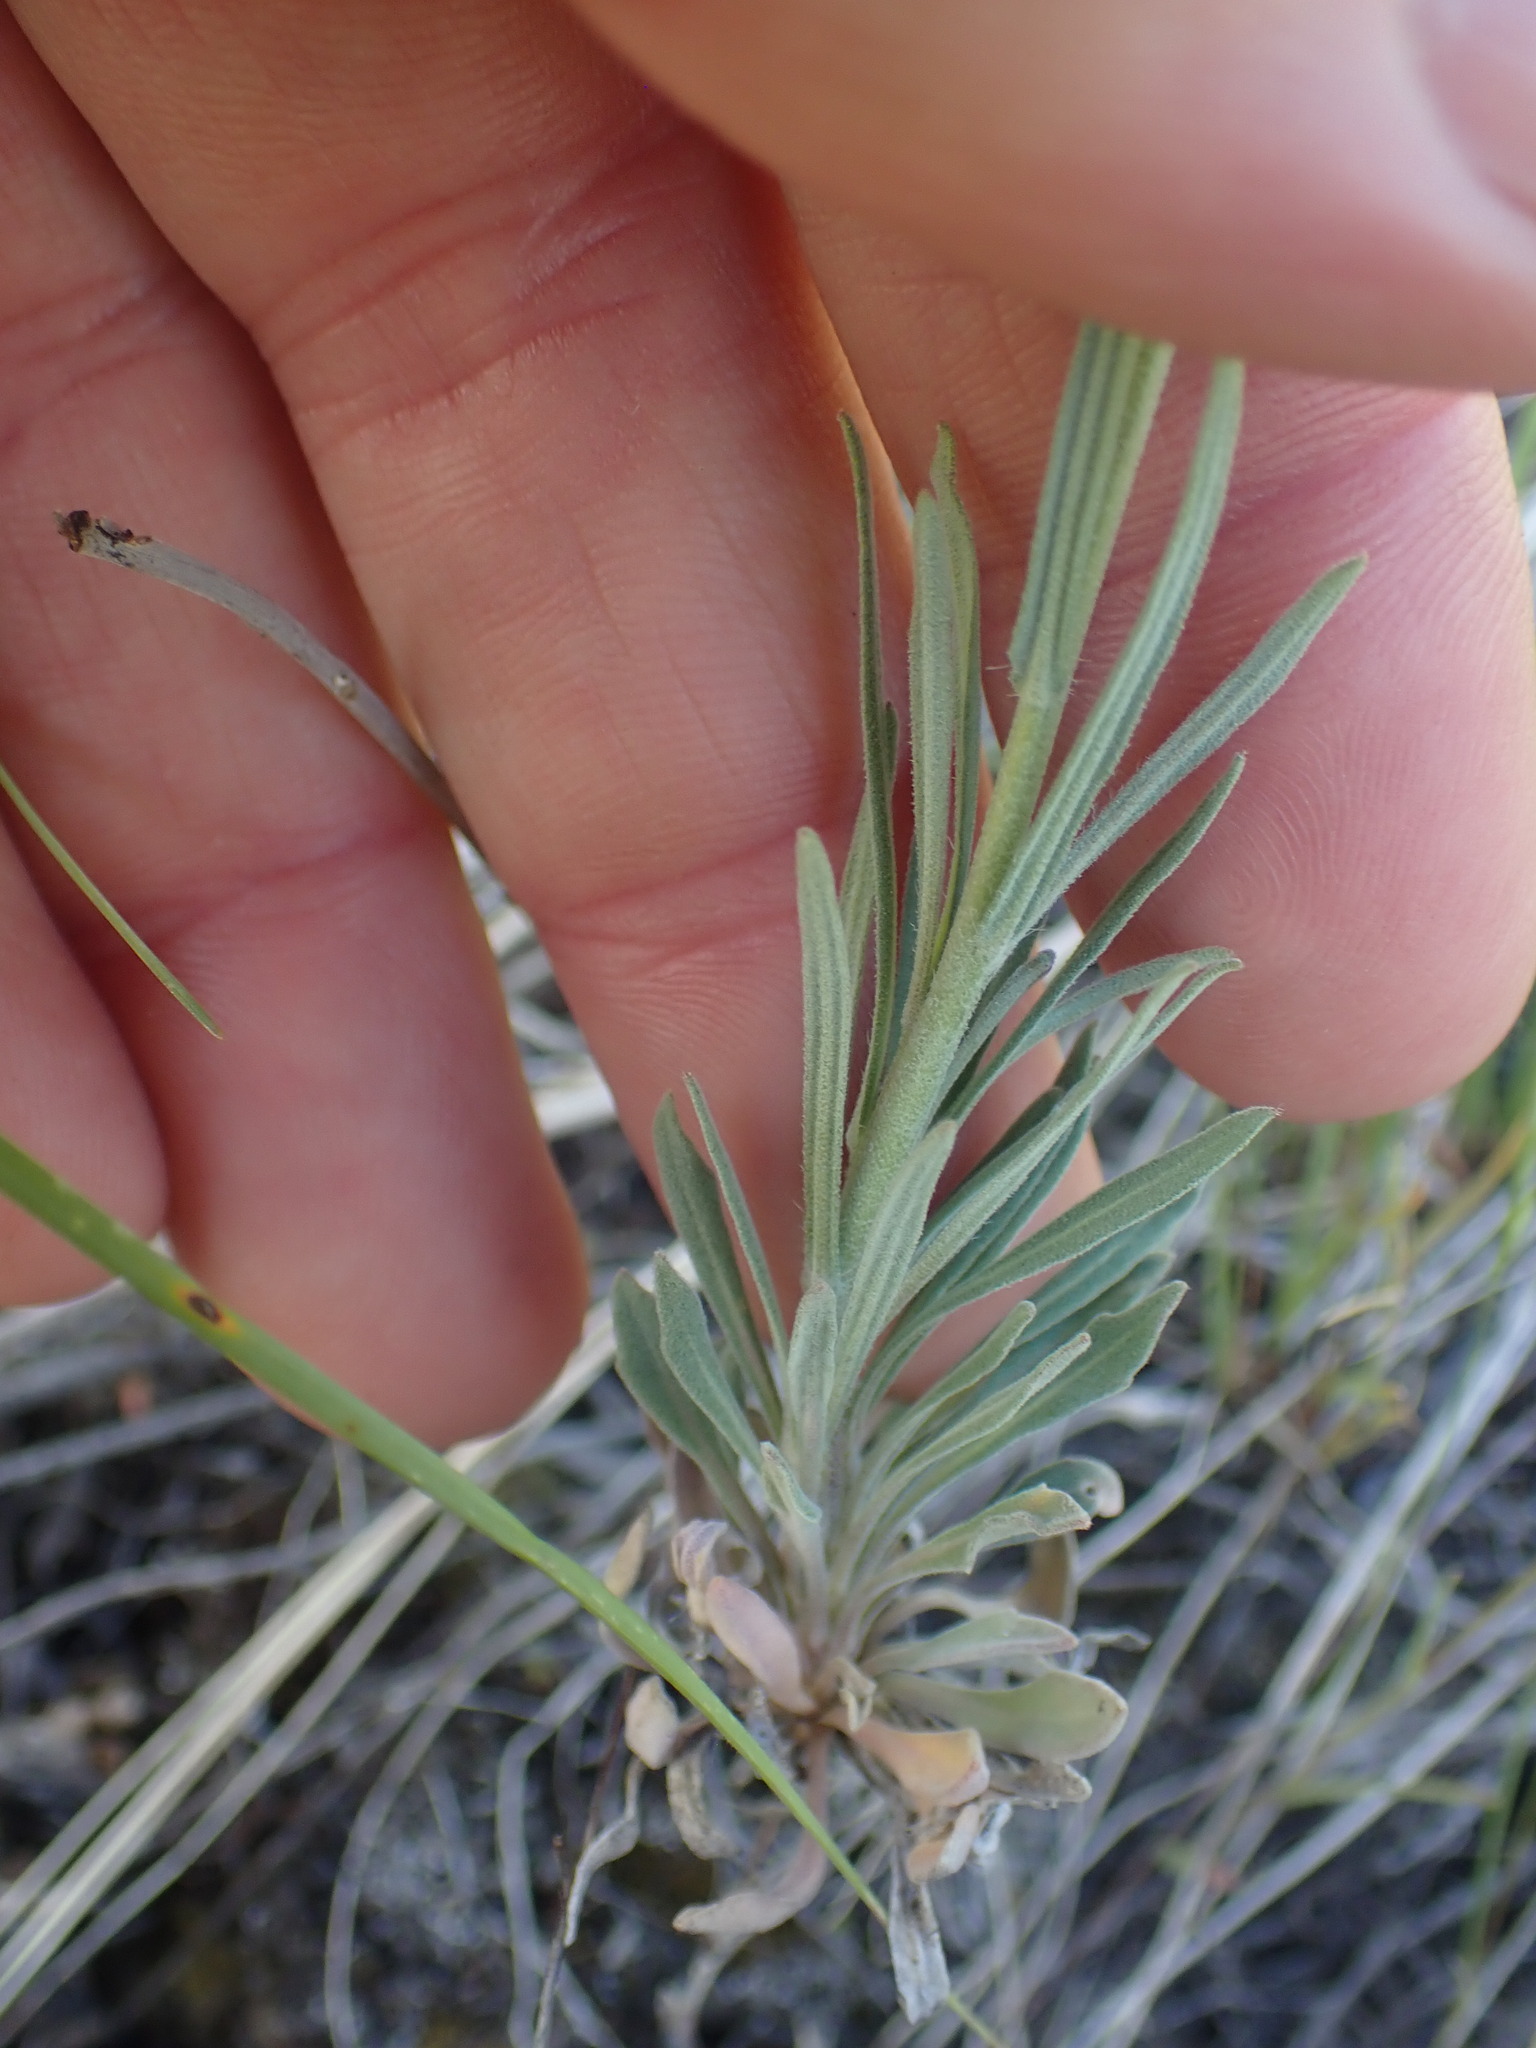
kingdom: Plantae
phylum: Tracheophyta
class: Magnoliopsida
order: Brassicales
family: Brassicaceae
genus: Boechera
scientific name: Boechera retrofracta
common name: Dangling suncress
